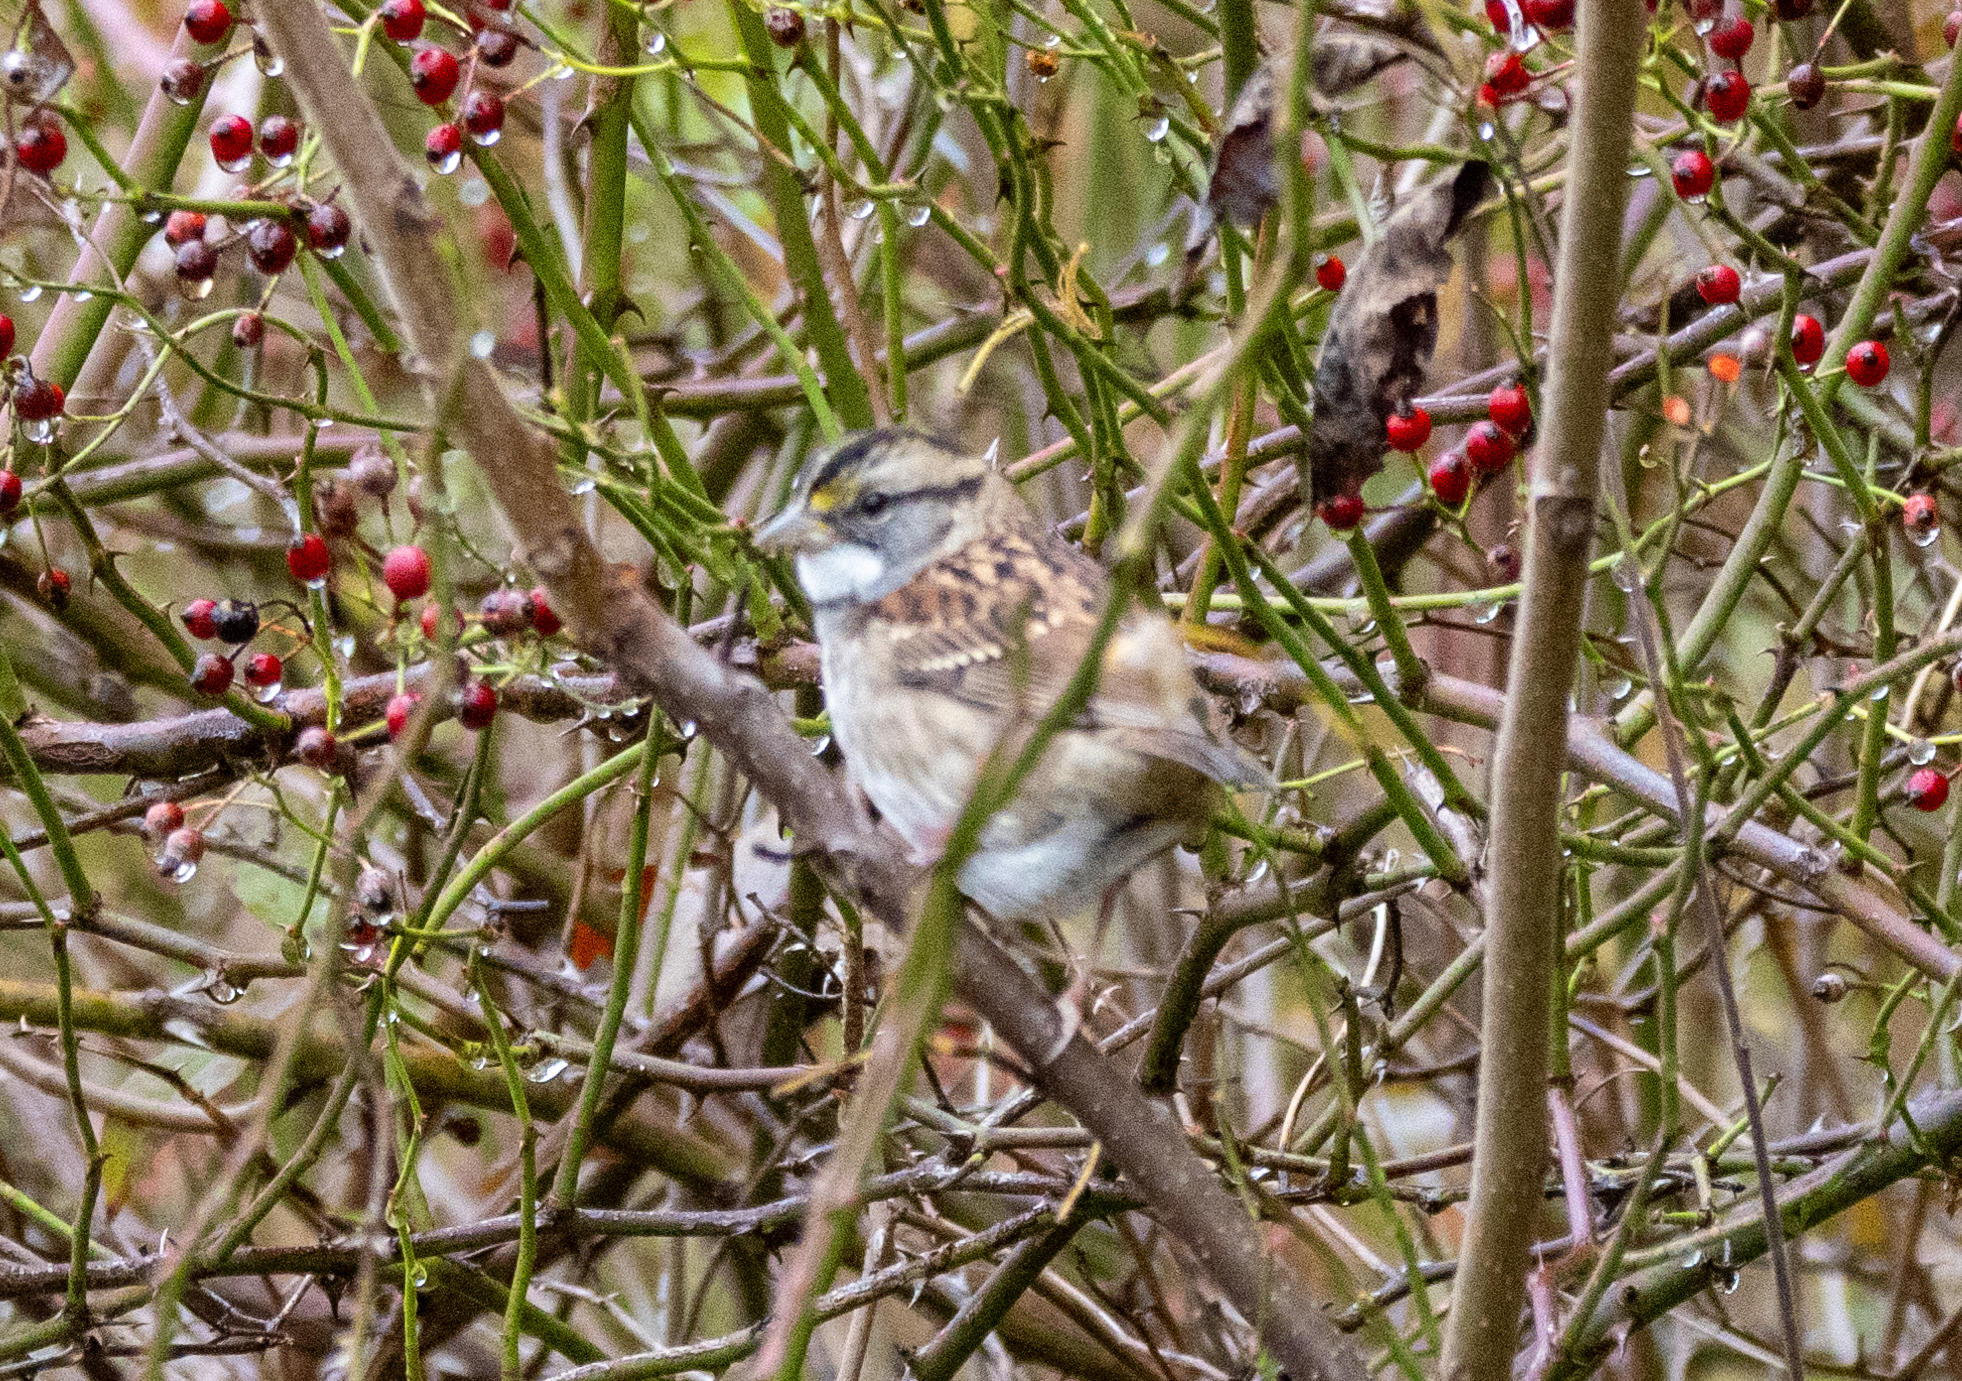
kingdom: Animalia
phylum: Chordata
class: Aves
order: Passeriformes
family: Passerellidae
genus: Zonotrichia
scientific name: Zonotrichia albicollis
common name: White-throated sparrow
